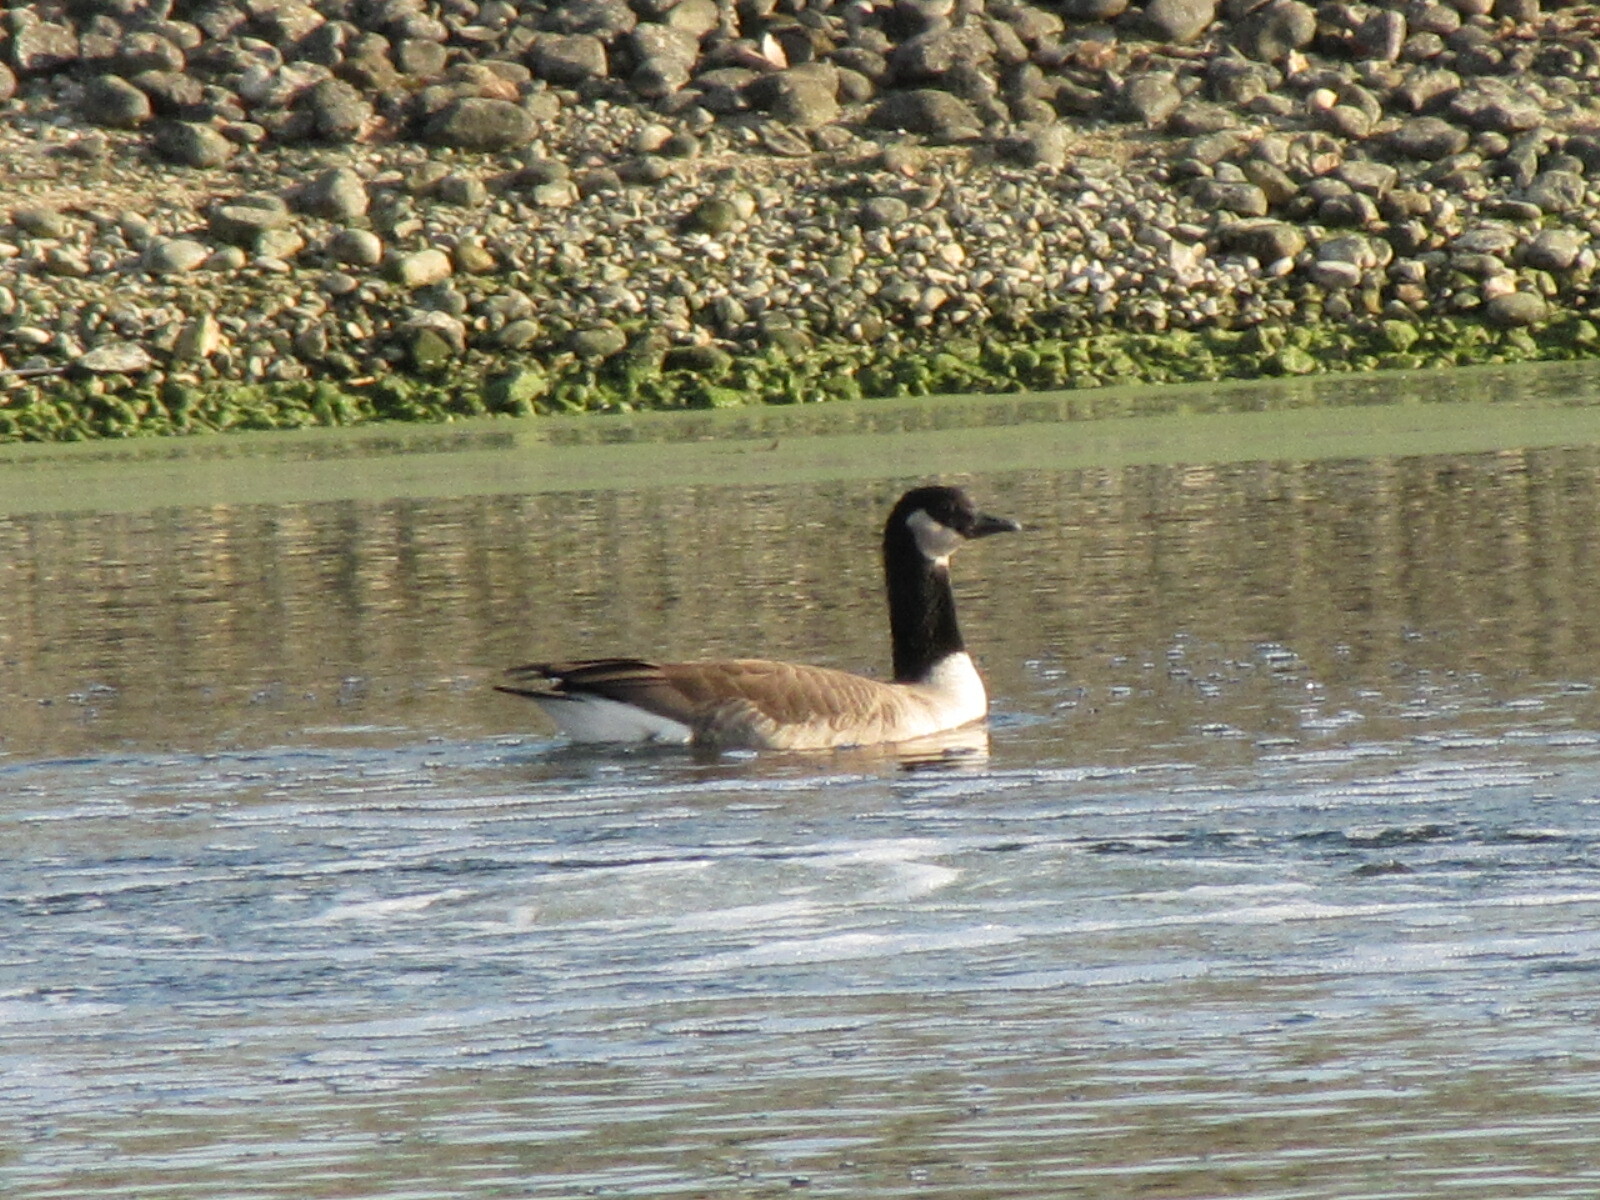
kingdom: Animalia
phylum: Chordata
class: Aves
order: Anseriformes
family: Anatidae
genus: Branta
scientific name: Branta hutchinsii
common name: Cackling goose
